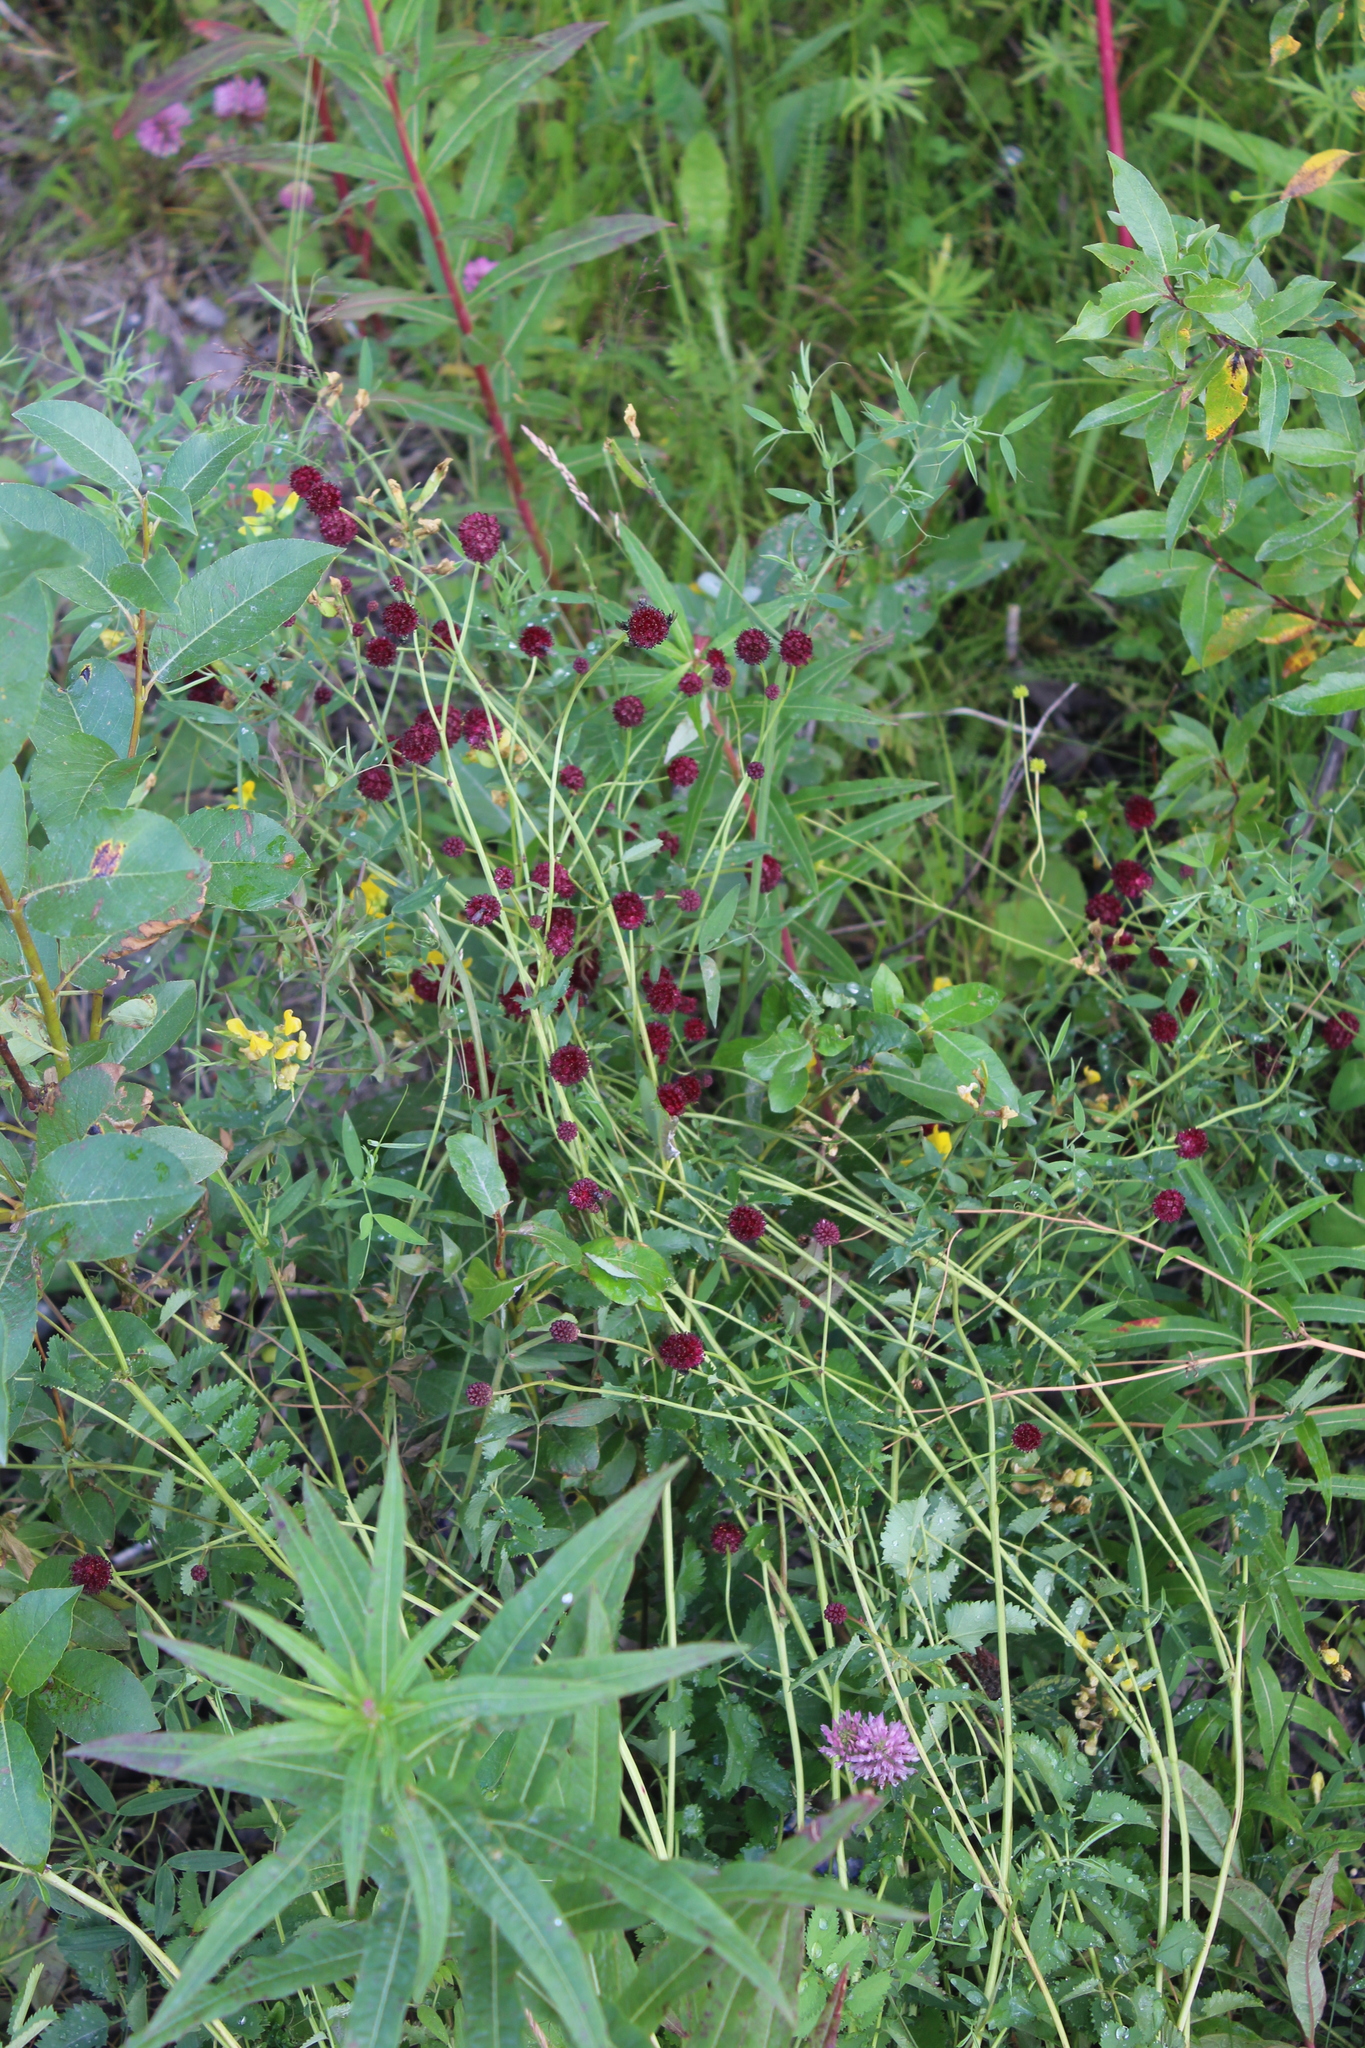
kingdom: Plantae
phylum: Tracheophyta
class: Magnoliopsida
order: Rosales
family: Rosaceae
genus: Sanguisorba
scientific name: Sanguisorba officinalis
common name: Great burnet
